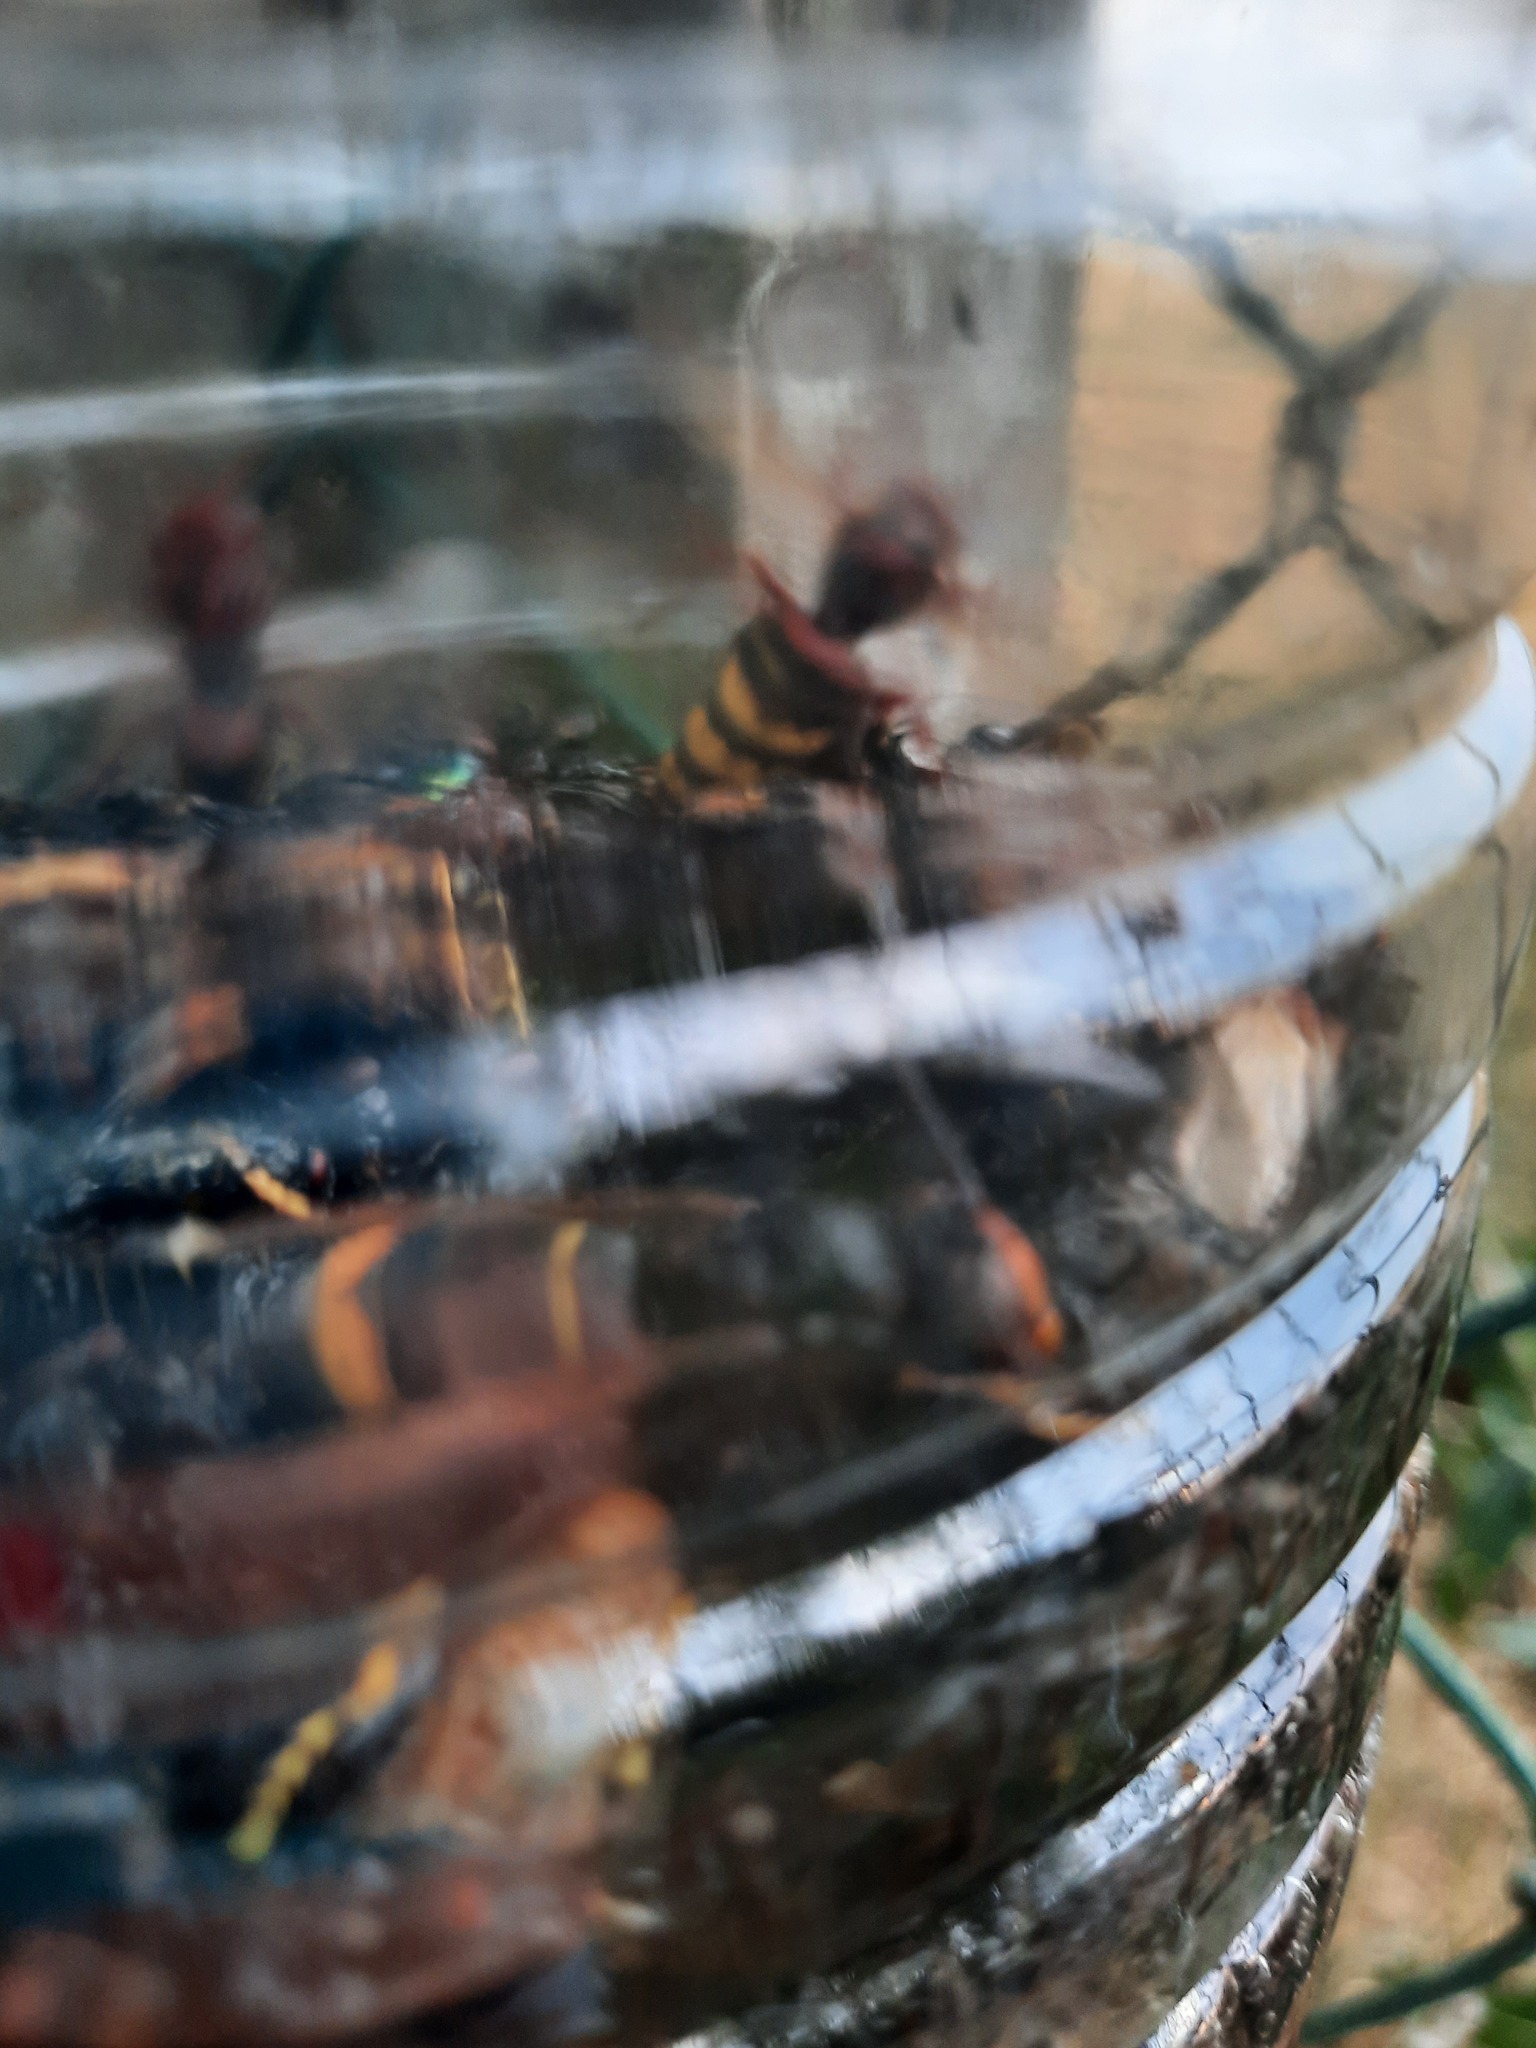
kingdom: Animalia
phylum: Arthropoda
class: Insecta
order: Hymenoptera
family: Vespidae
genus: Vespa
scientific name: Vespa velutina
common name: Asian hornet
